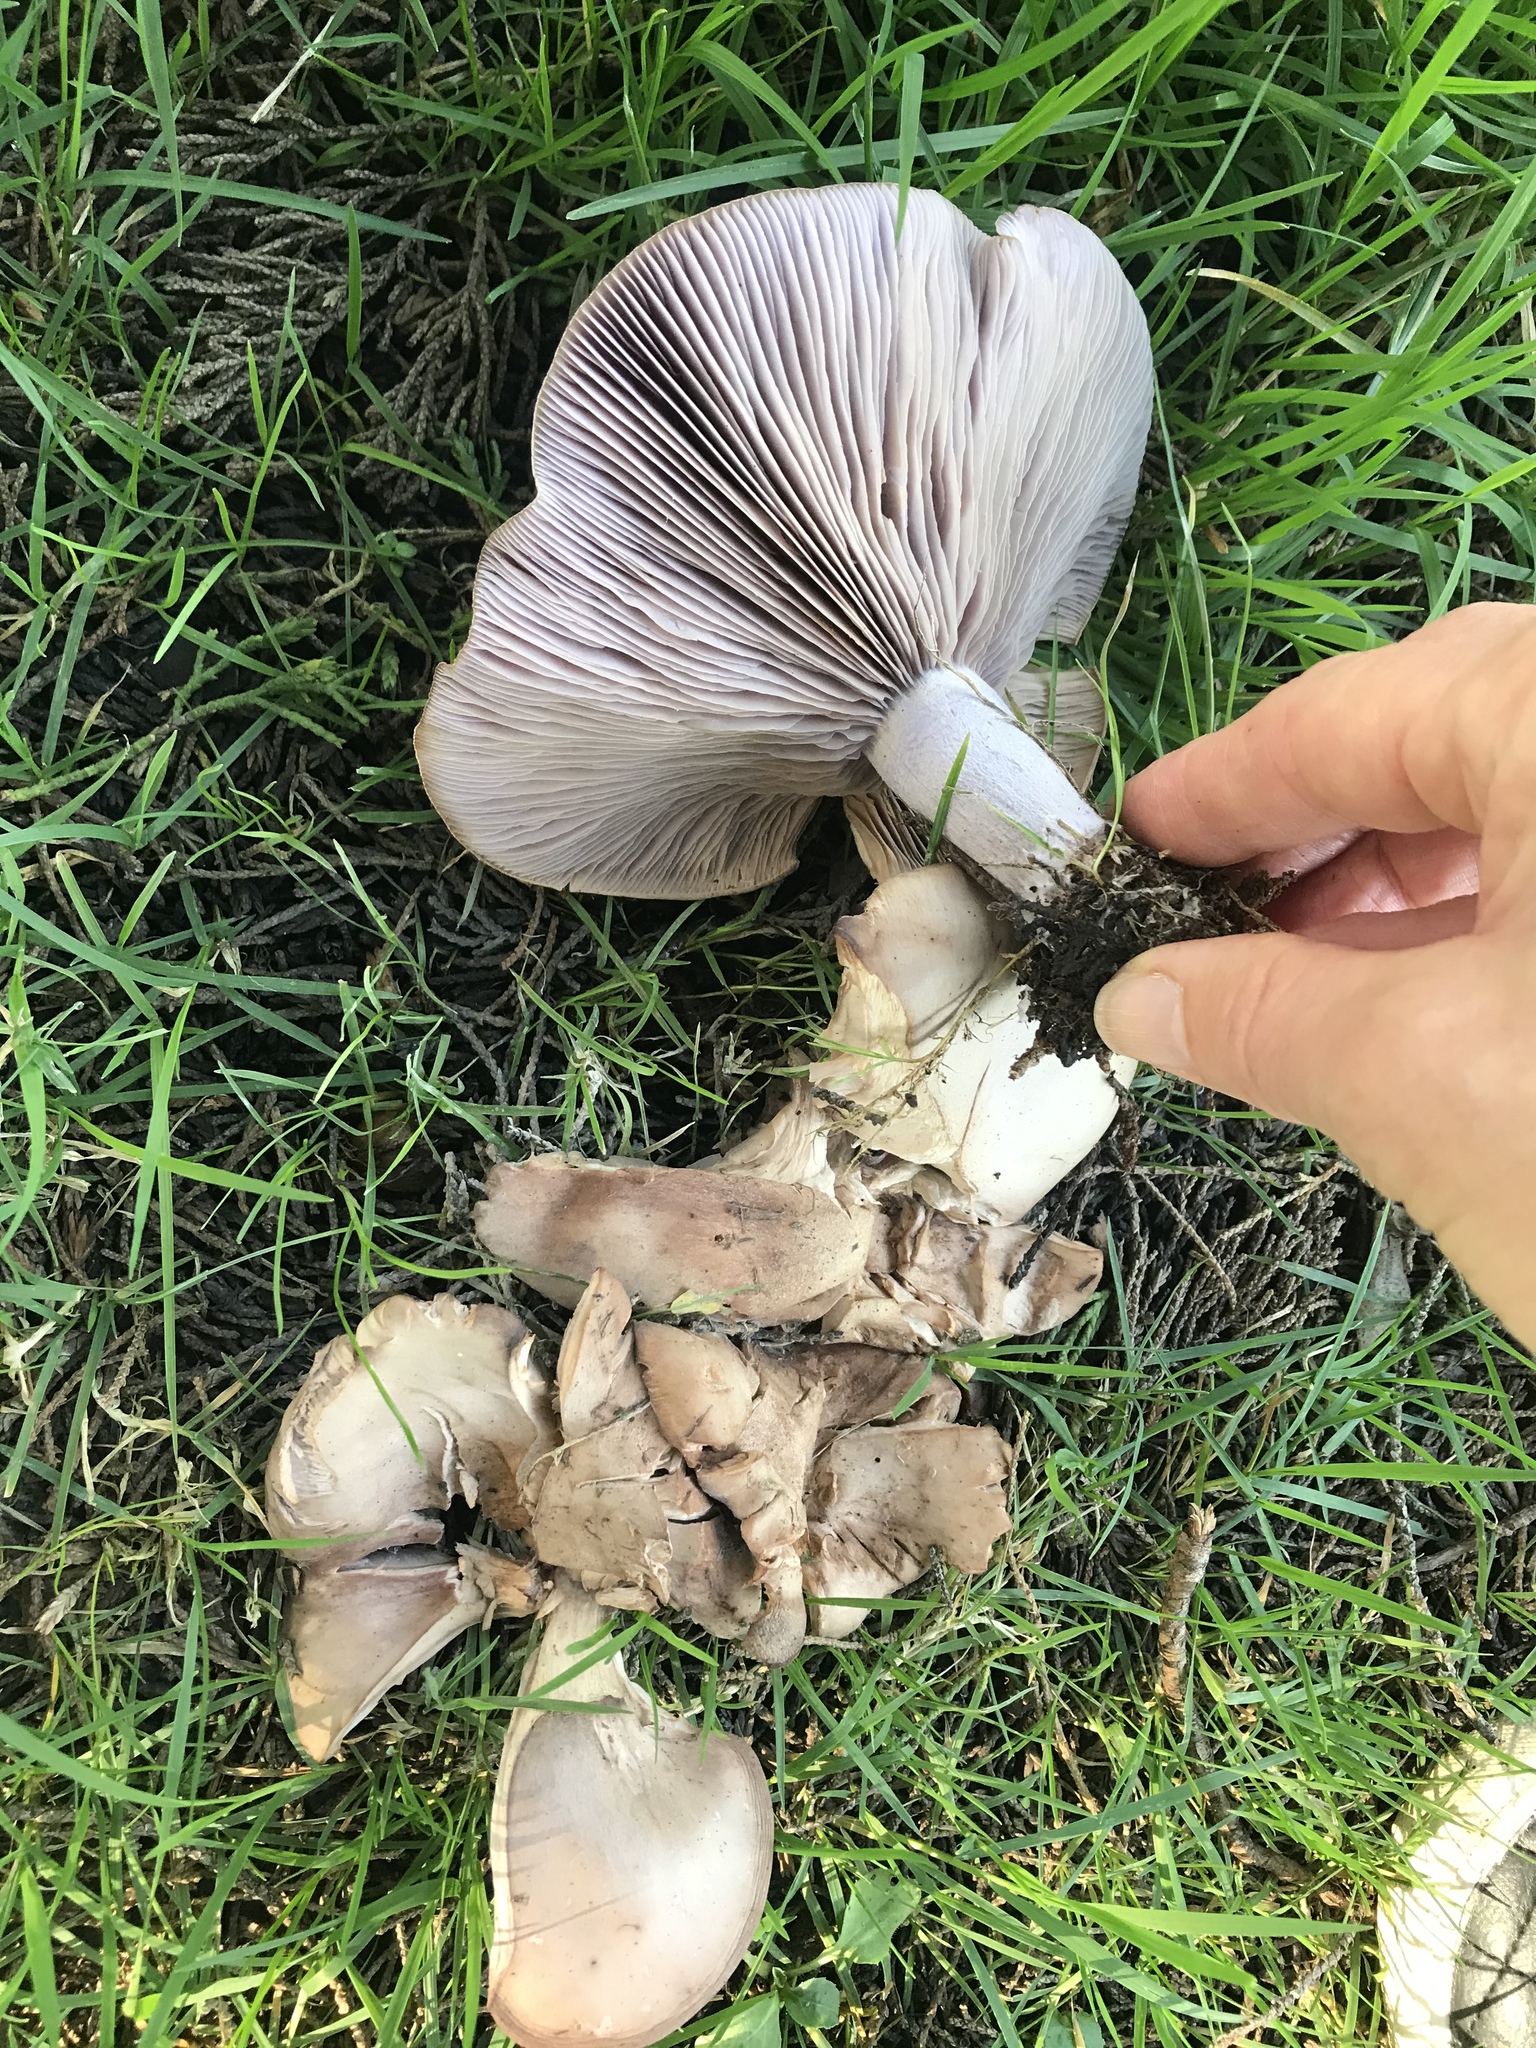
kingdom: Fungi
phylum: Basidiomycota
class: Agaricomycetes
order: Agaricales
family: Tricholomataceae
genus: Collybia
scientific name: Collybia
